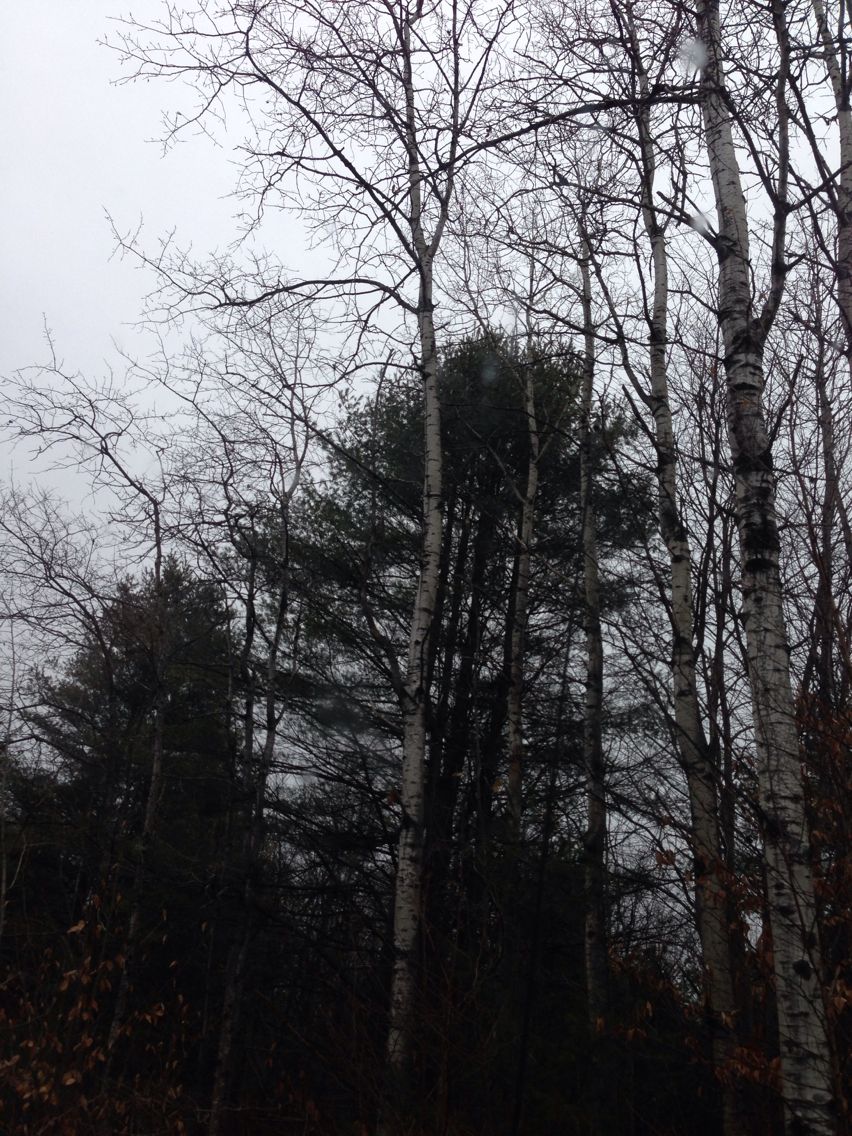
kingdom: Plantae
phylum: Tracheophyta
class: Magnoliopsida
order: Malpighiales
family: Salicaceae
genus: Populus
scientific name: Populus tremuloides
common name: Quaking aspen
